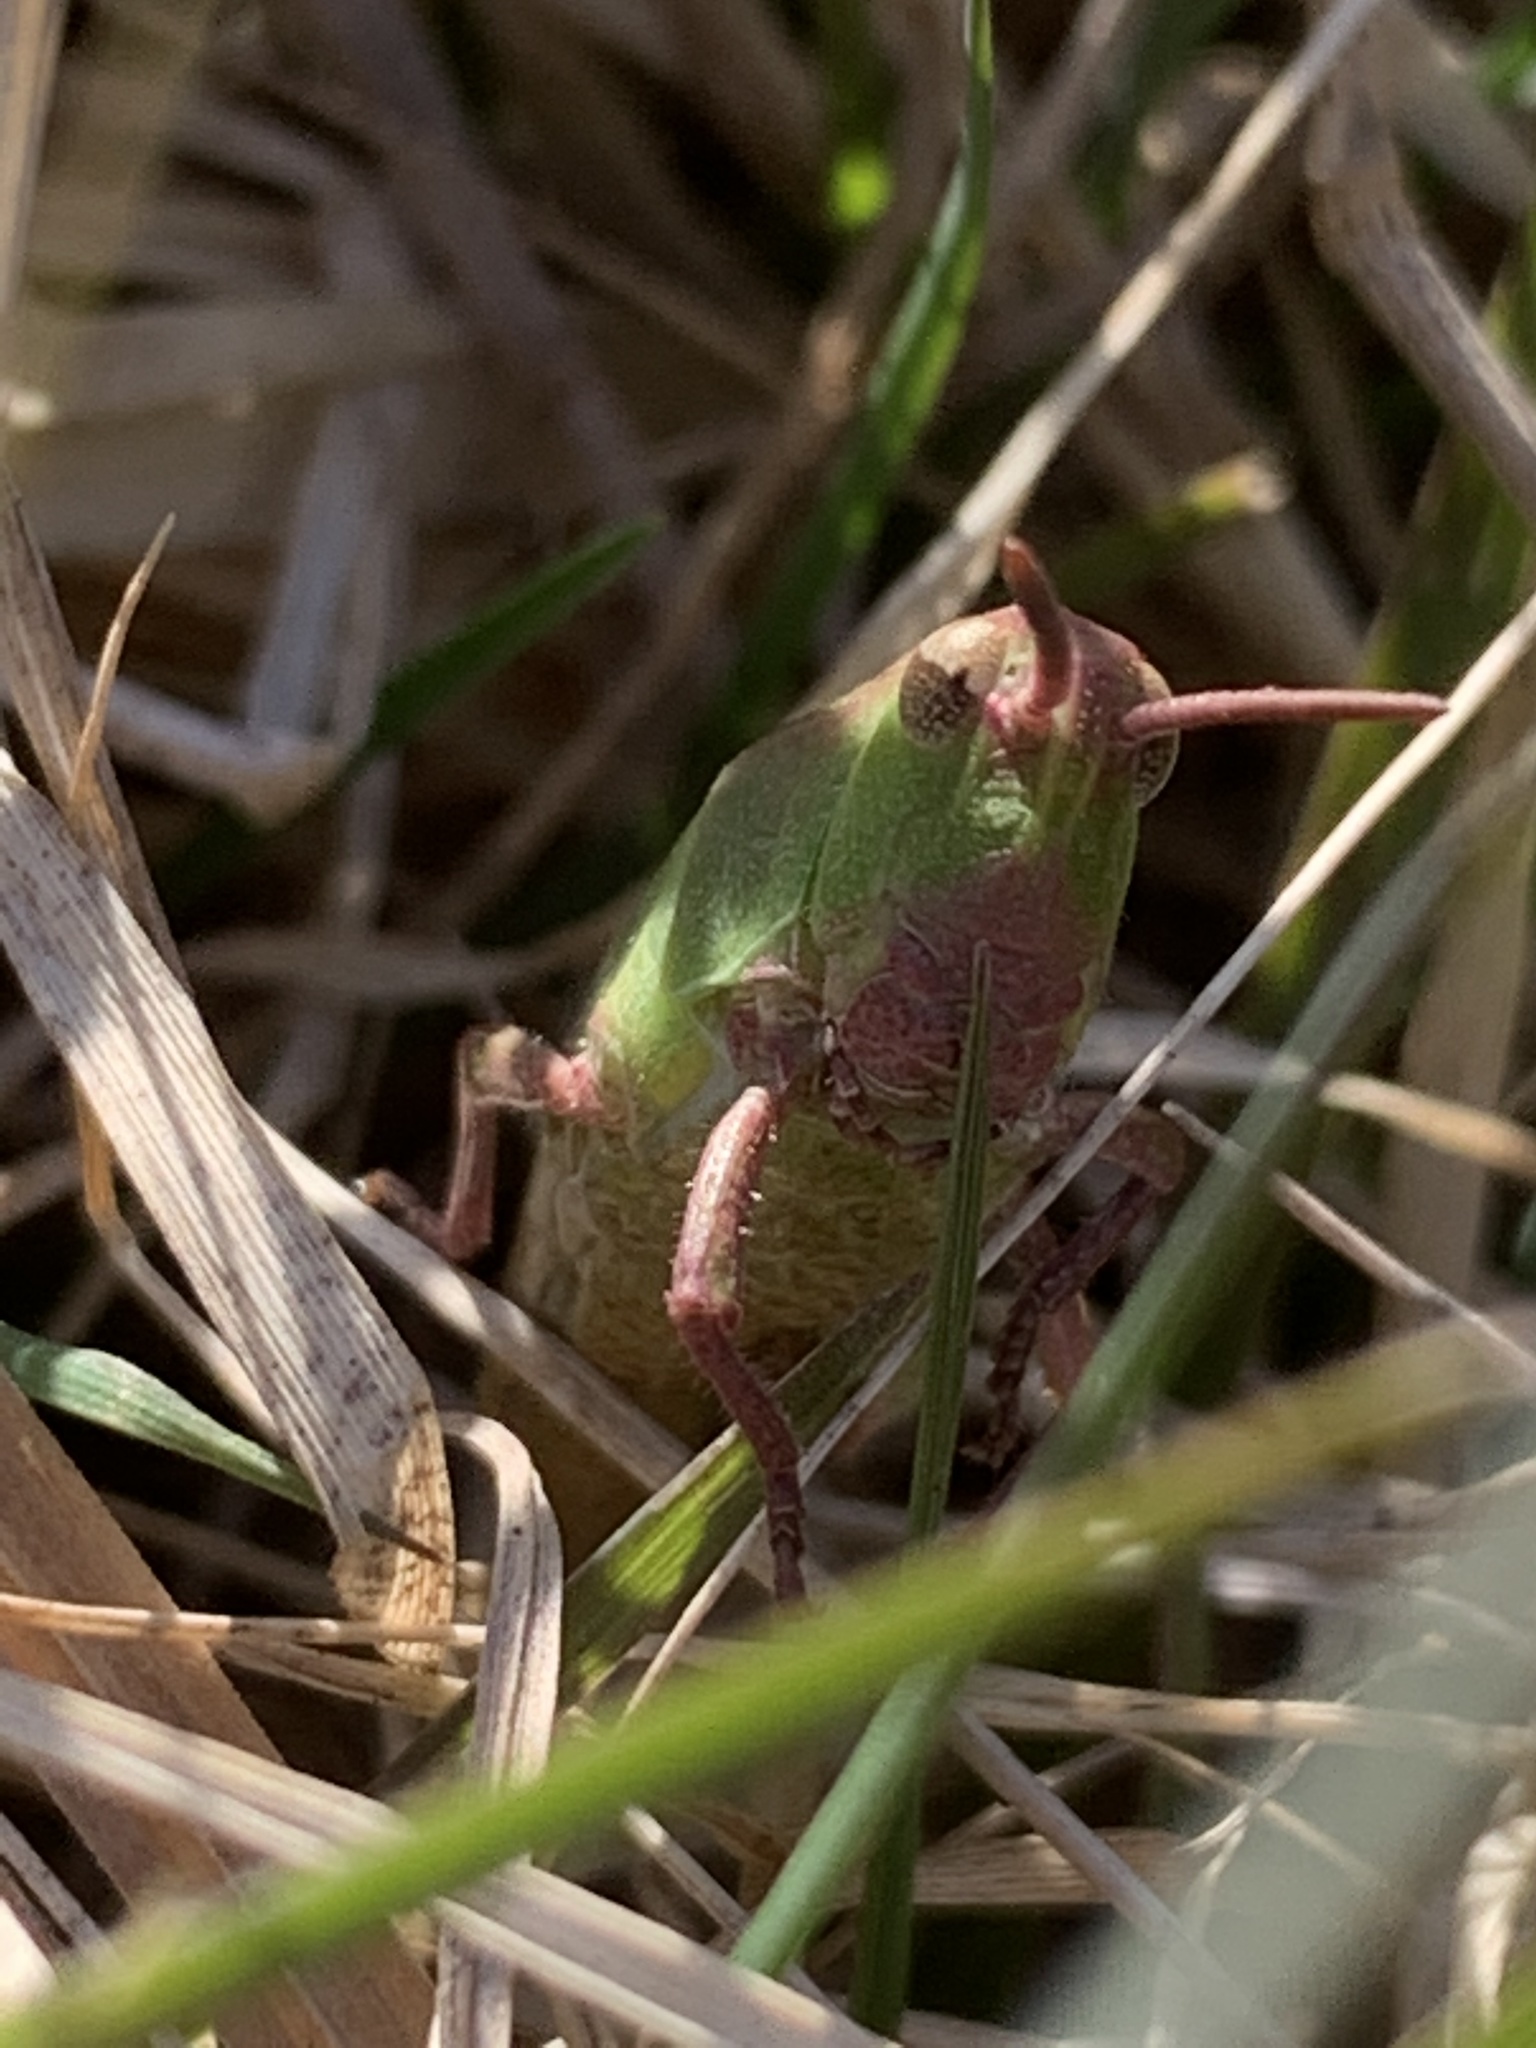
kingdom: Animalia
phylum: Arthropoda
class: Insecta
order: Orthoptera
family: Acrididae
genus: Chortophaga
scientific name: Chortophaga viridifasciata
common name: Green-striped grasshopper
